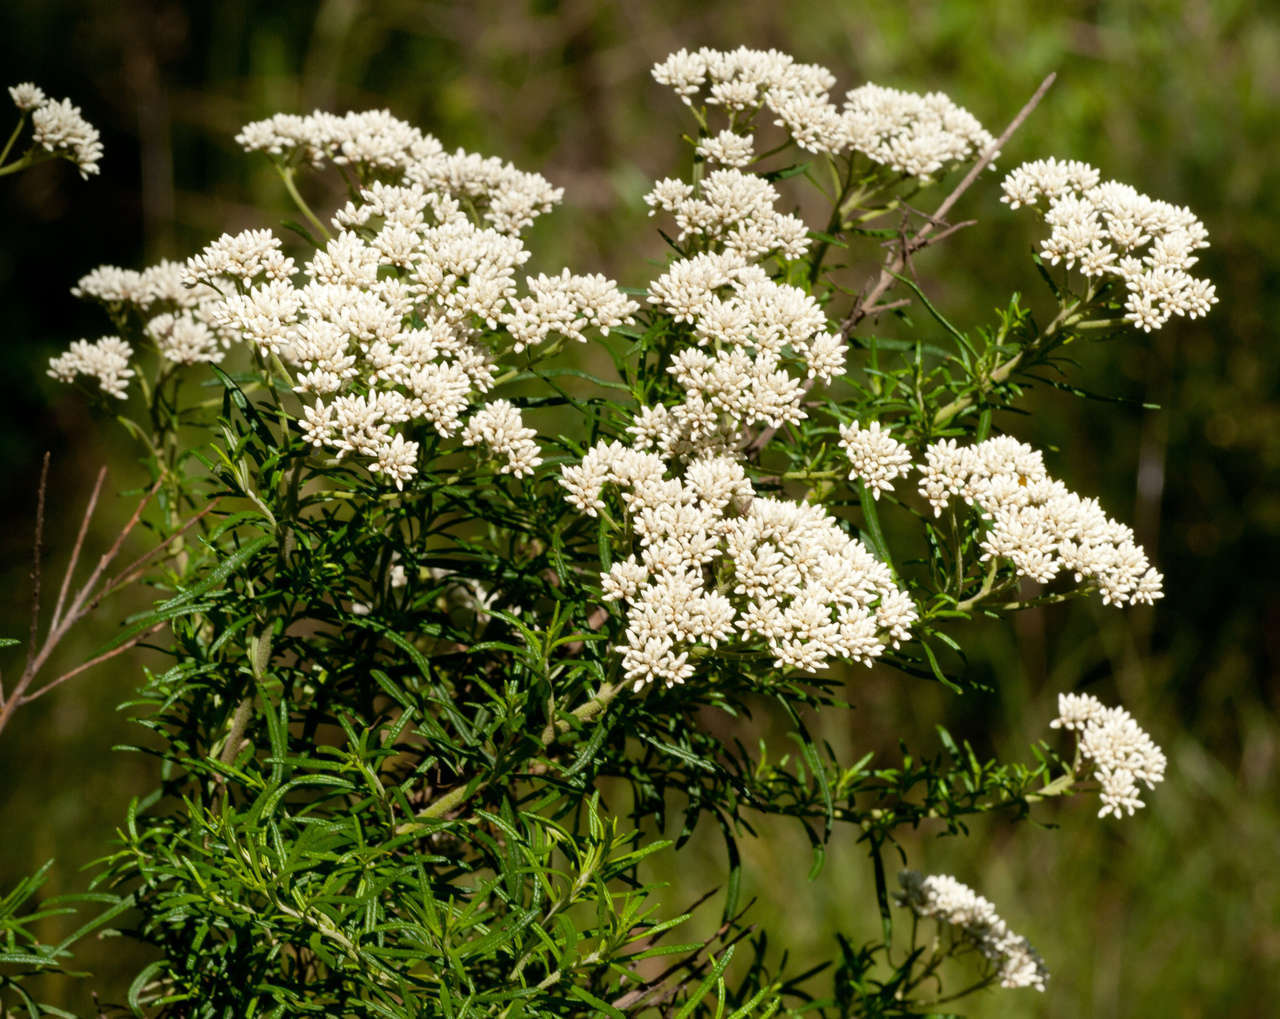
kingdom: Plantae
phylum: Tracheophyta
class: Magnoliopsida
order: Asterales
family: Asteraceae
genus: Cassinia
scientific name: Cassinia aculeata
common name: Australian tauhinu
